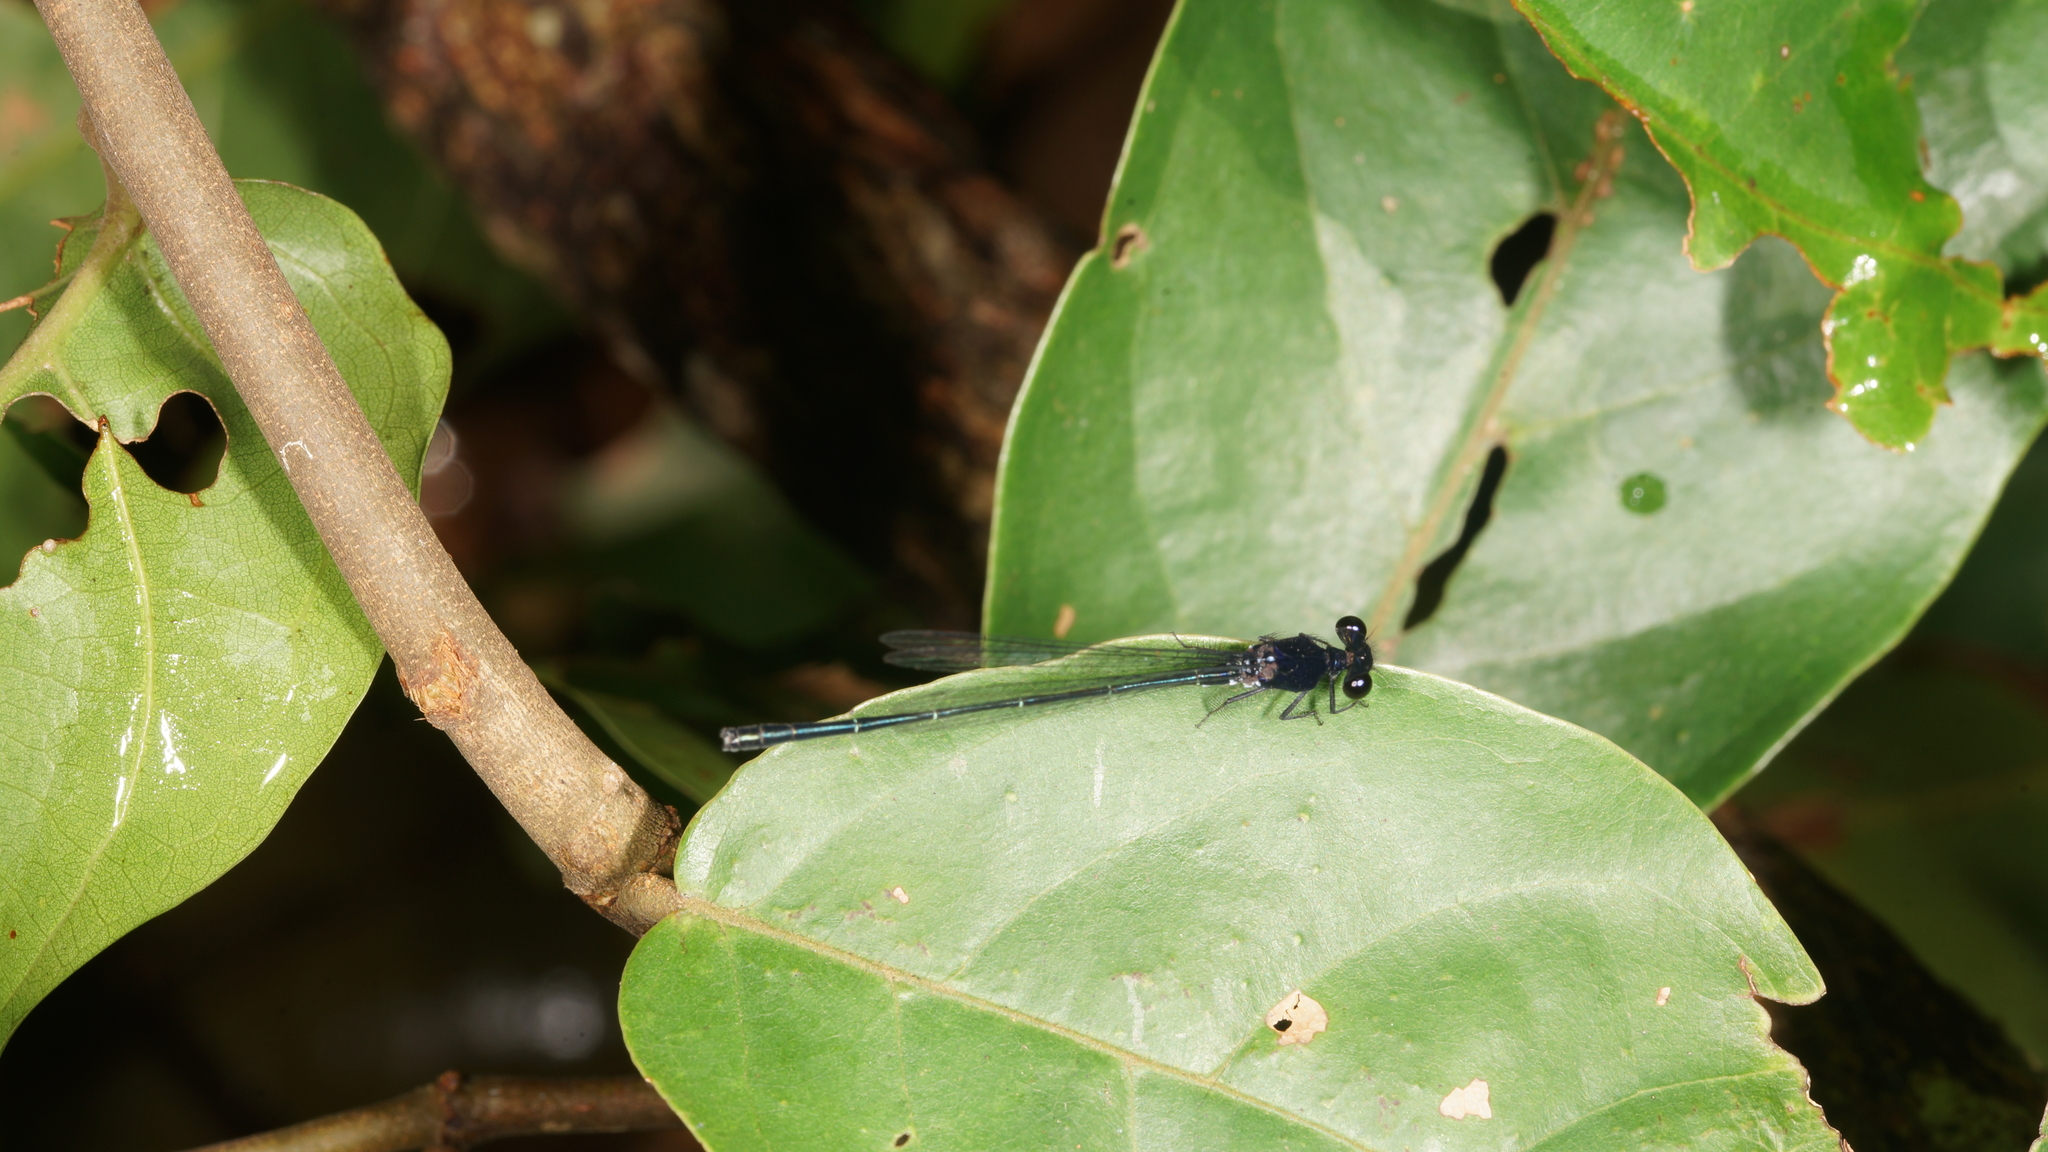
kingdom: Animalia
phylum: Arthropoda
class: Insecta
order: Odonata
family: Platycnemididae
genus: Onychargia
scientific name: Onychargia atrocyana
